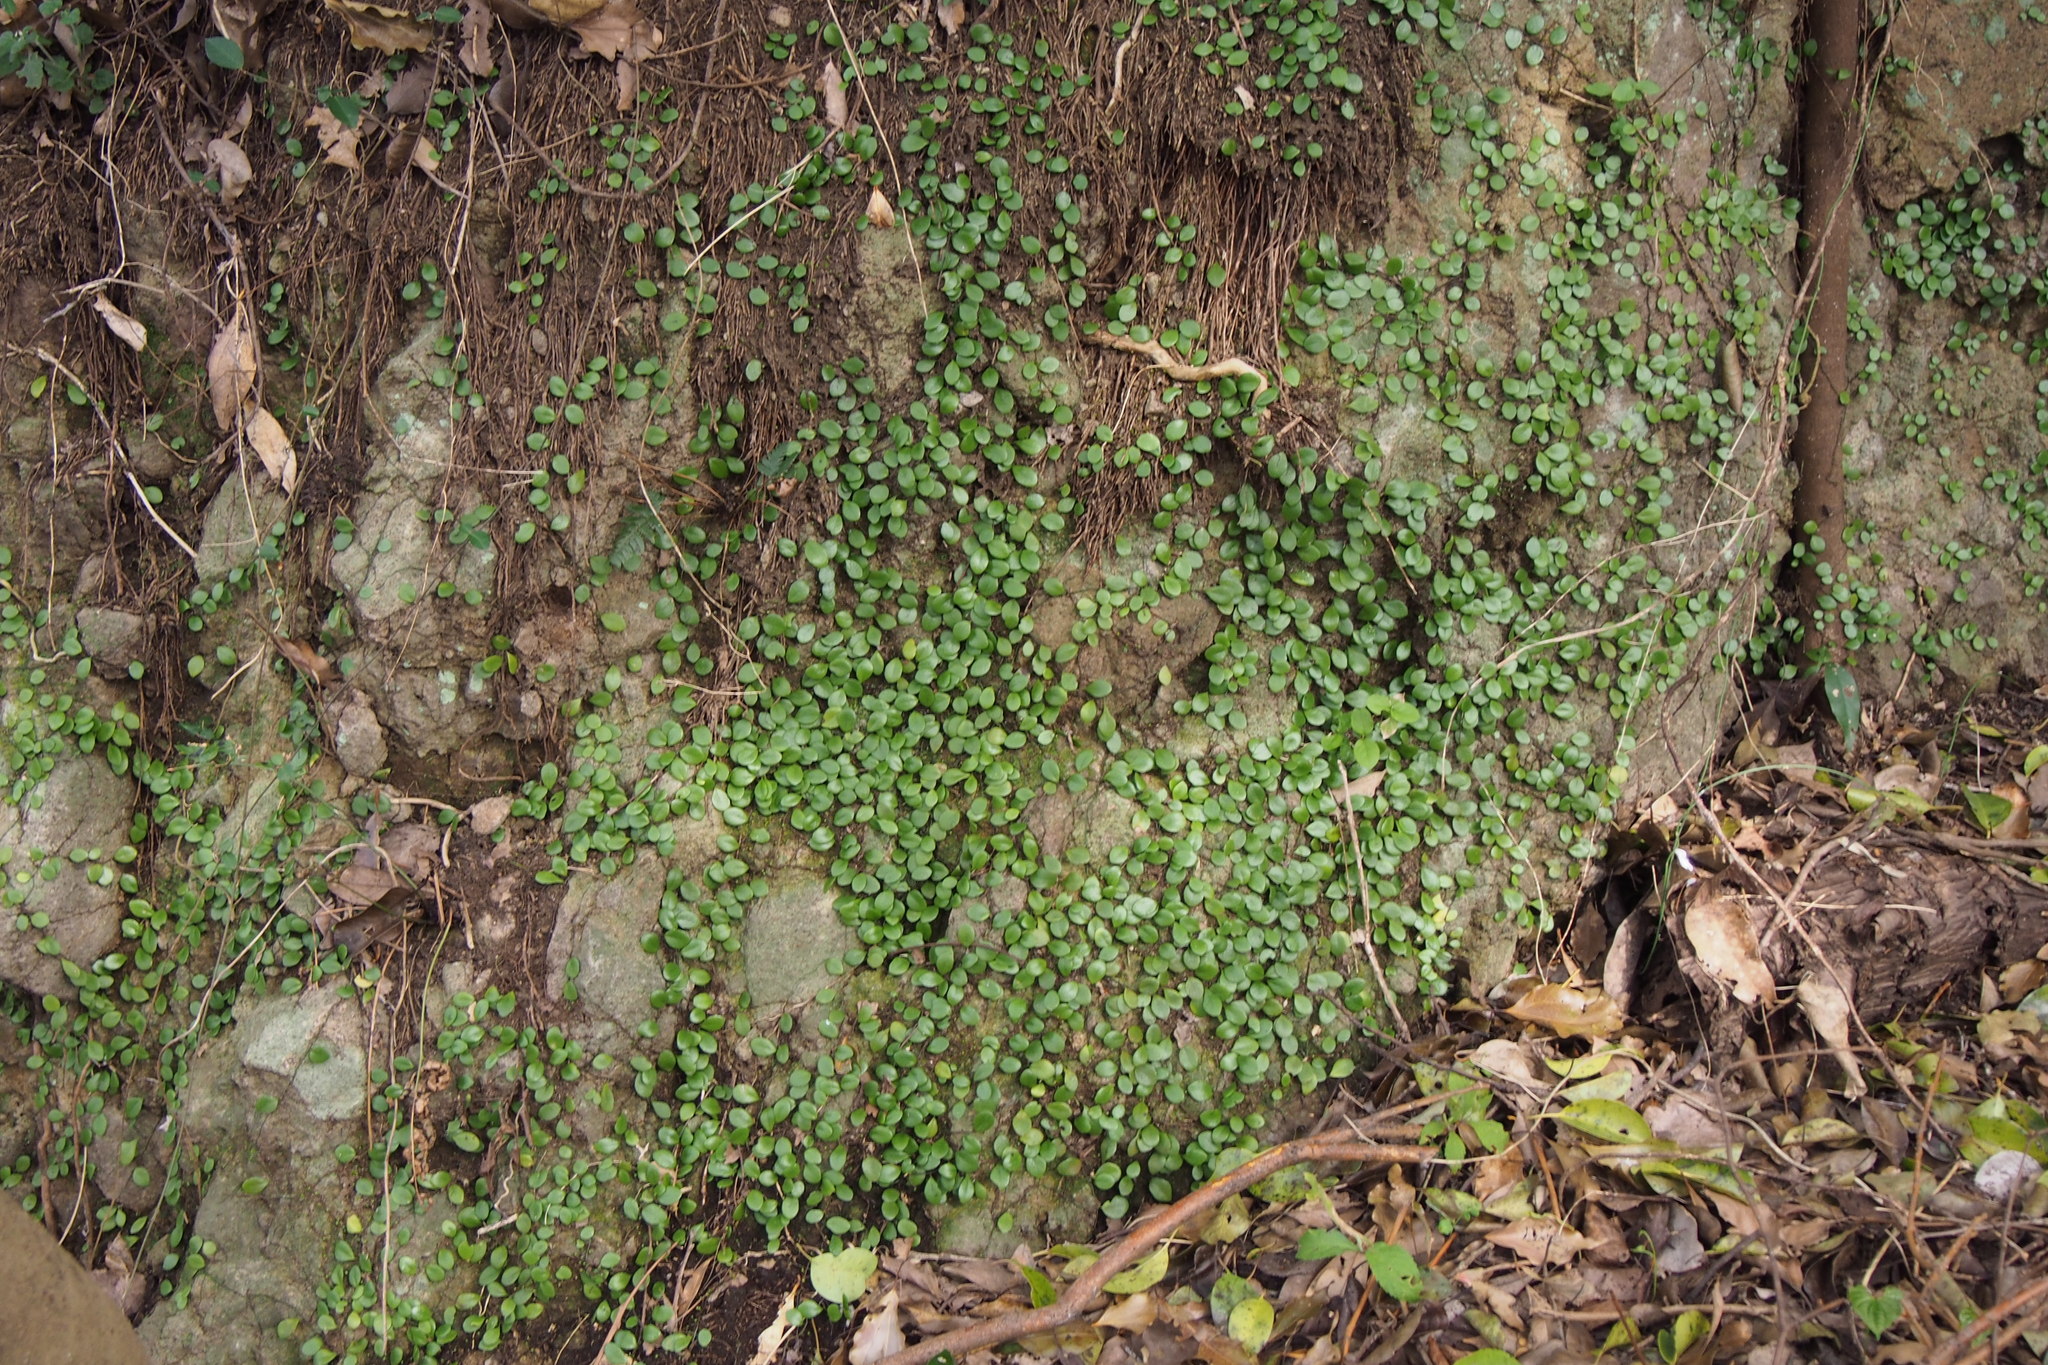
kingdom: Plantae
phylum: Tracheophyta
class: Polypodiopsida
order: Polypodiales
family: Polypodiaceae
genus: Lepisorus
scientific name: Lepisorus microphyllus
